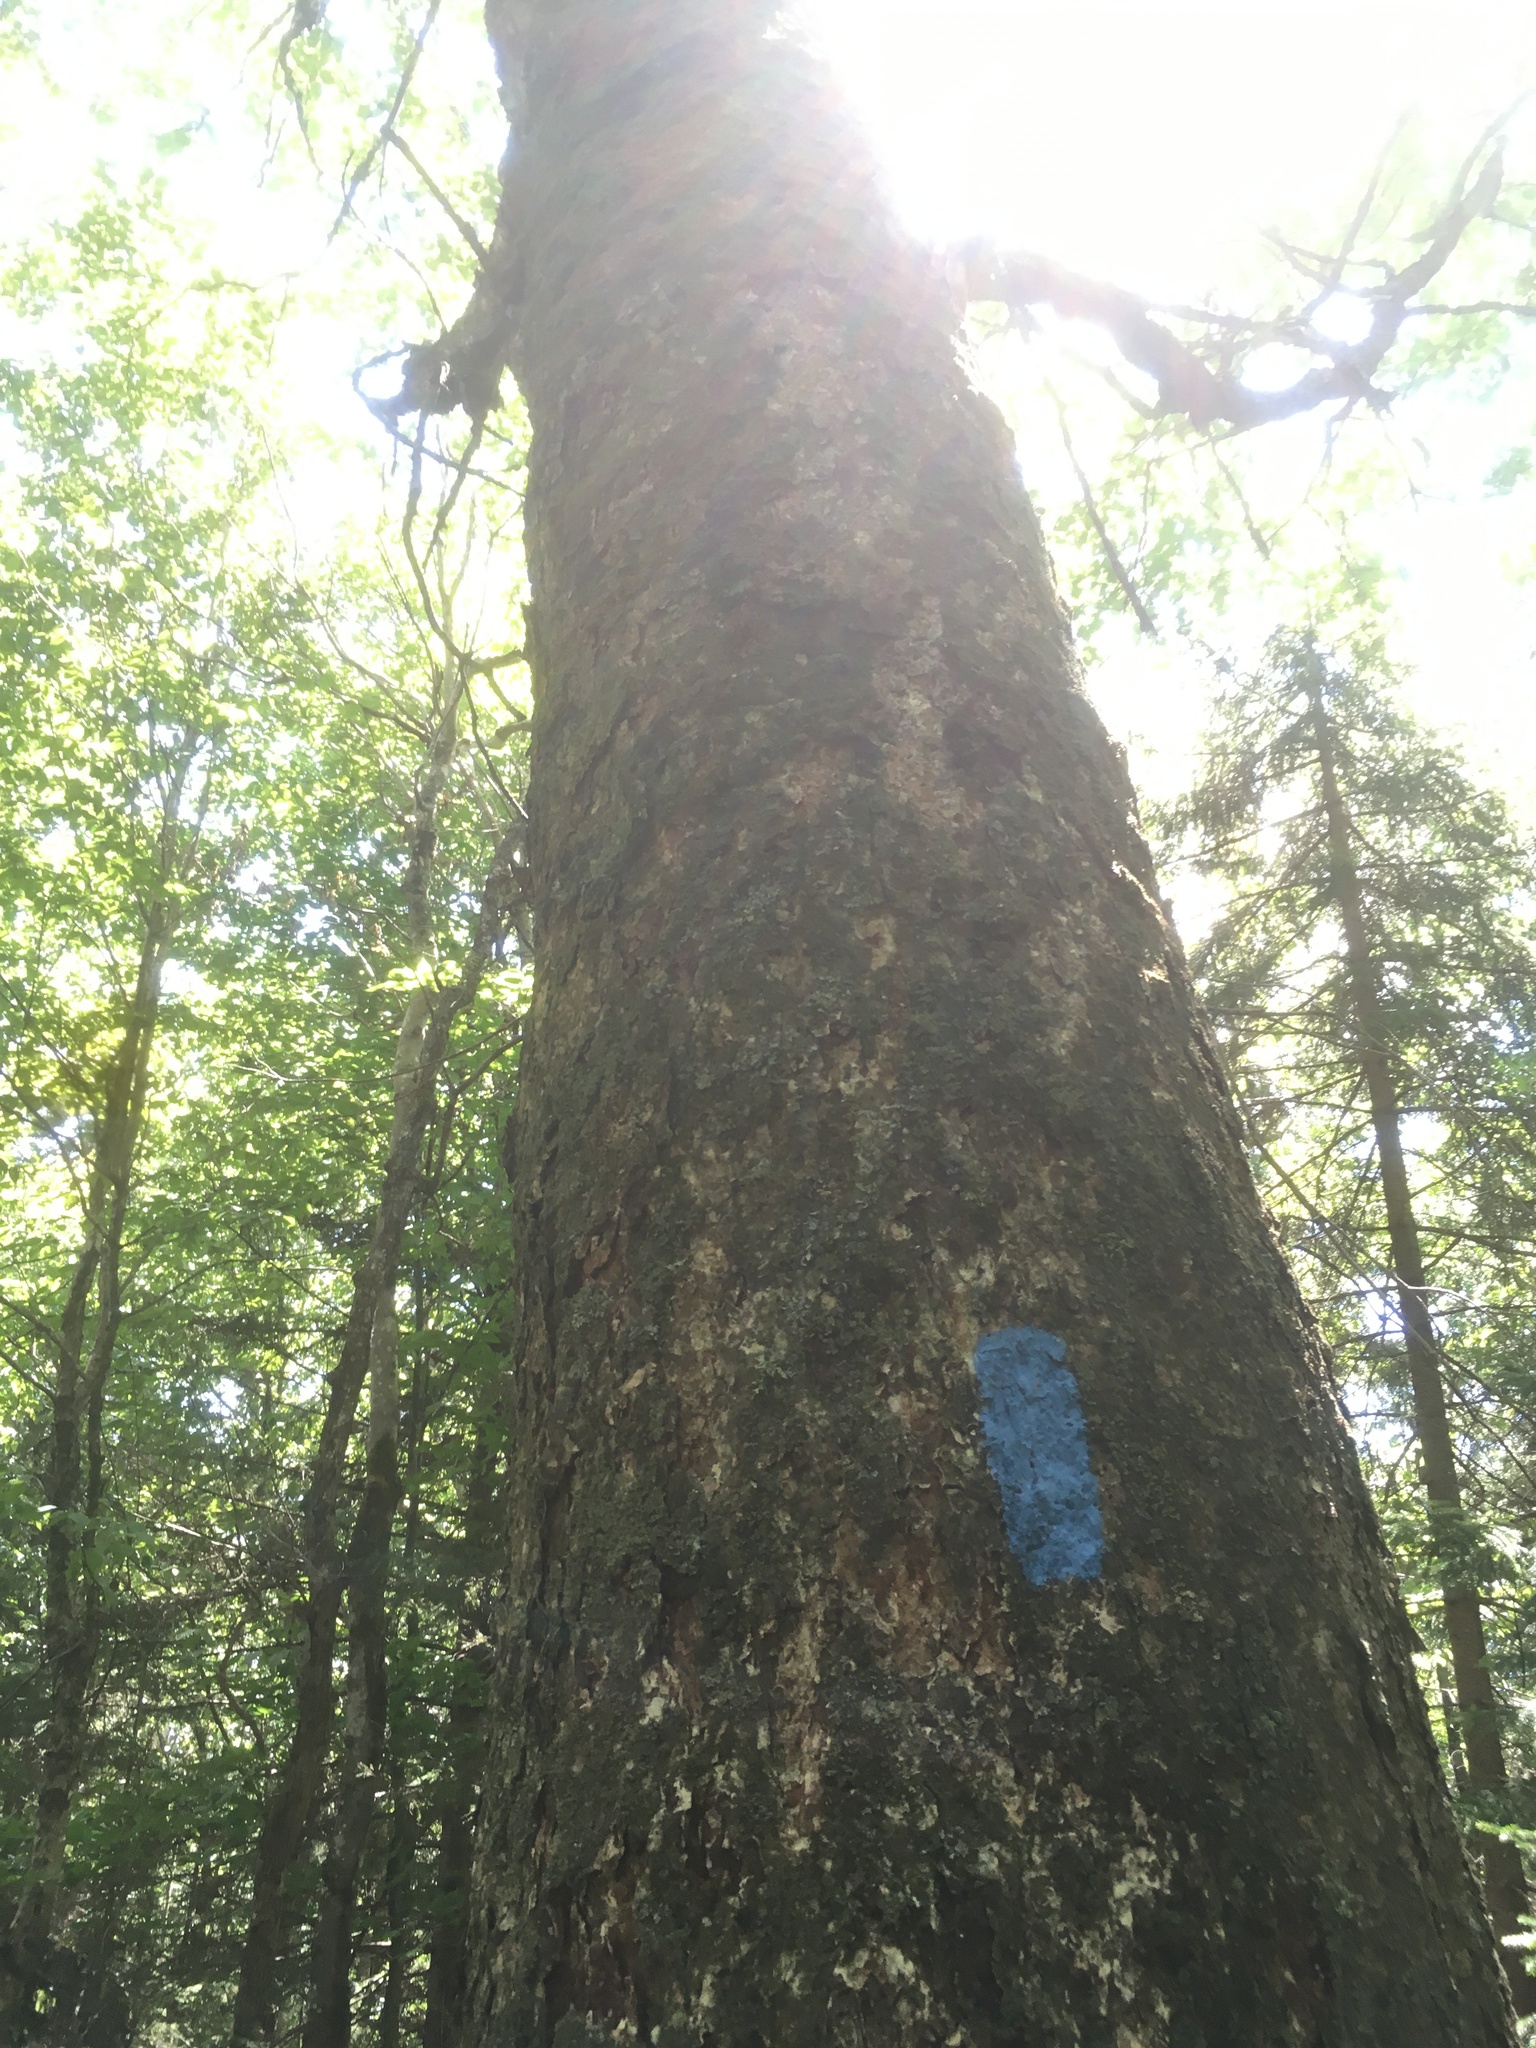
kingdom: Plantae
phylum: Tracheophyta
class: Magnoliopsida
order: Fagales
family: Betulaceae
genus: Betula
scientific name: Betula alleghaniensis
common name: Yellow birch
